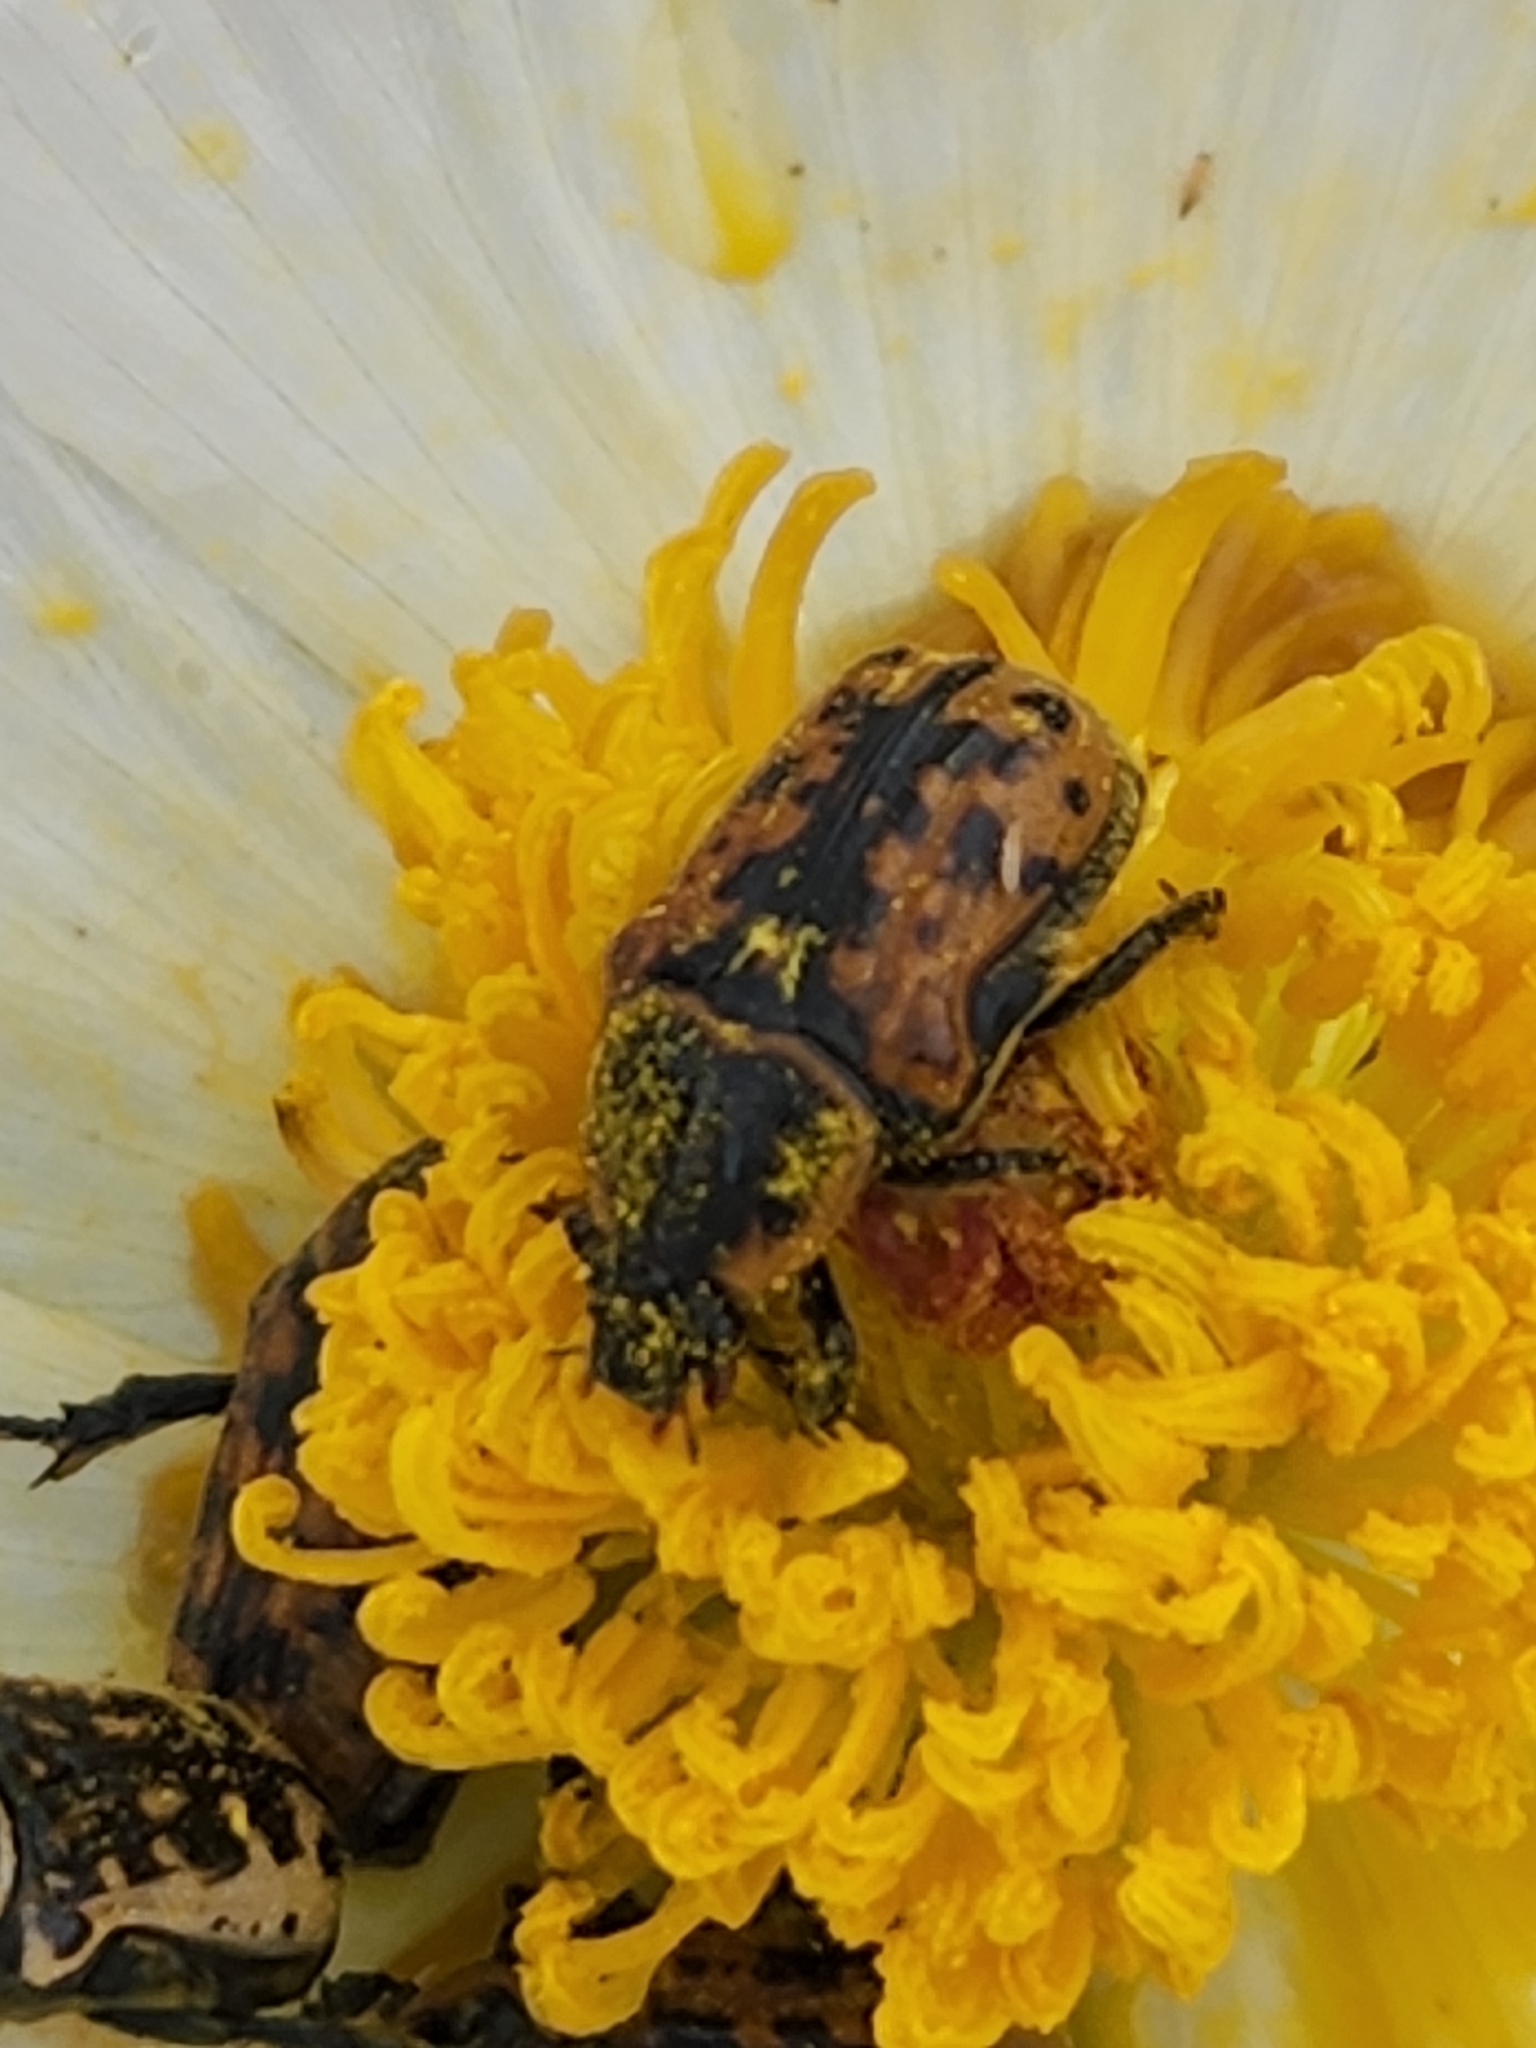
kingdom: Animalia
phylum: Arthropoda
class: Insecta
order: Coleoptera
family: Scarabaeidae
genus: Euphoria
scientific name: Euphoria kernii
